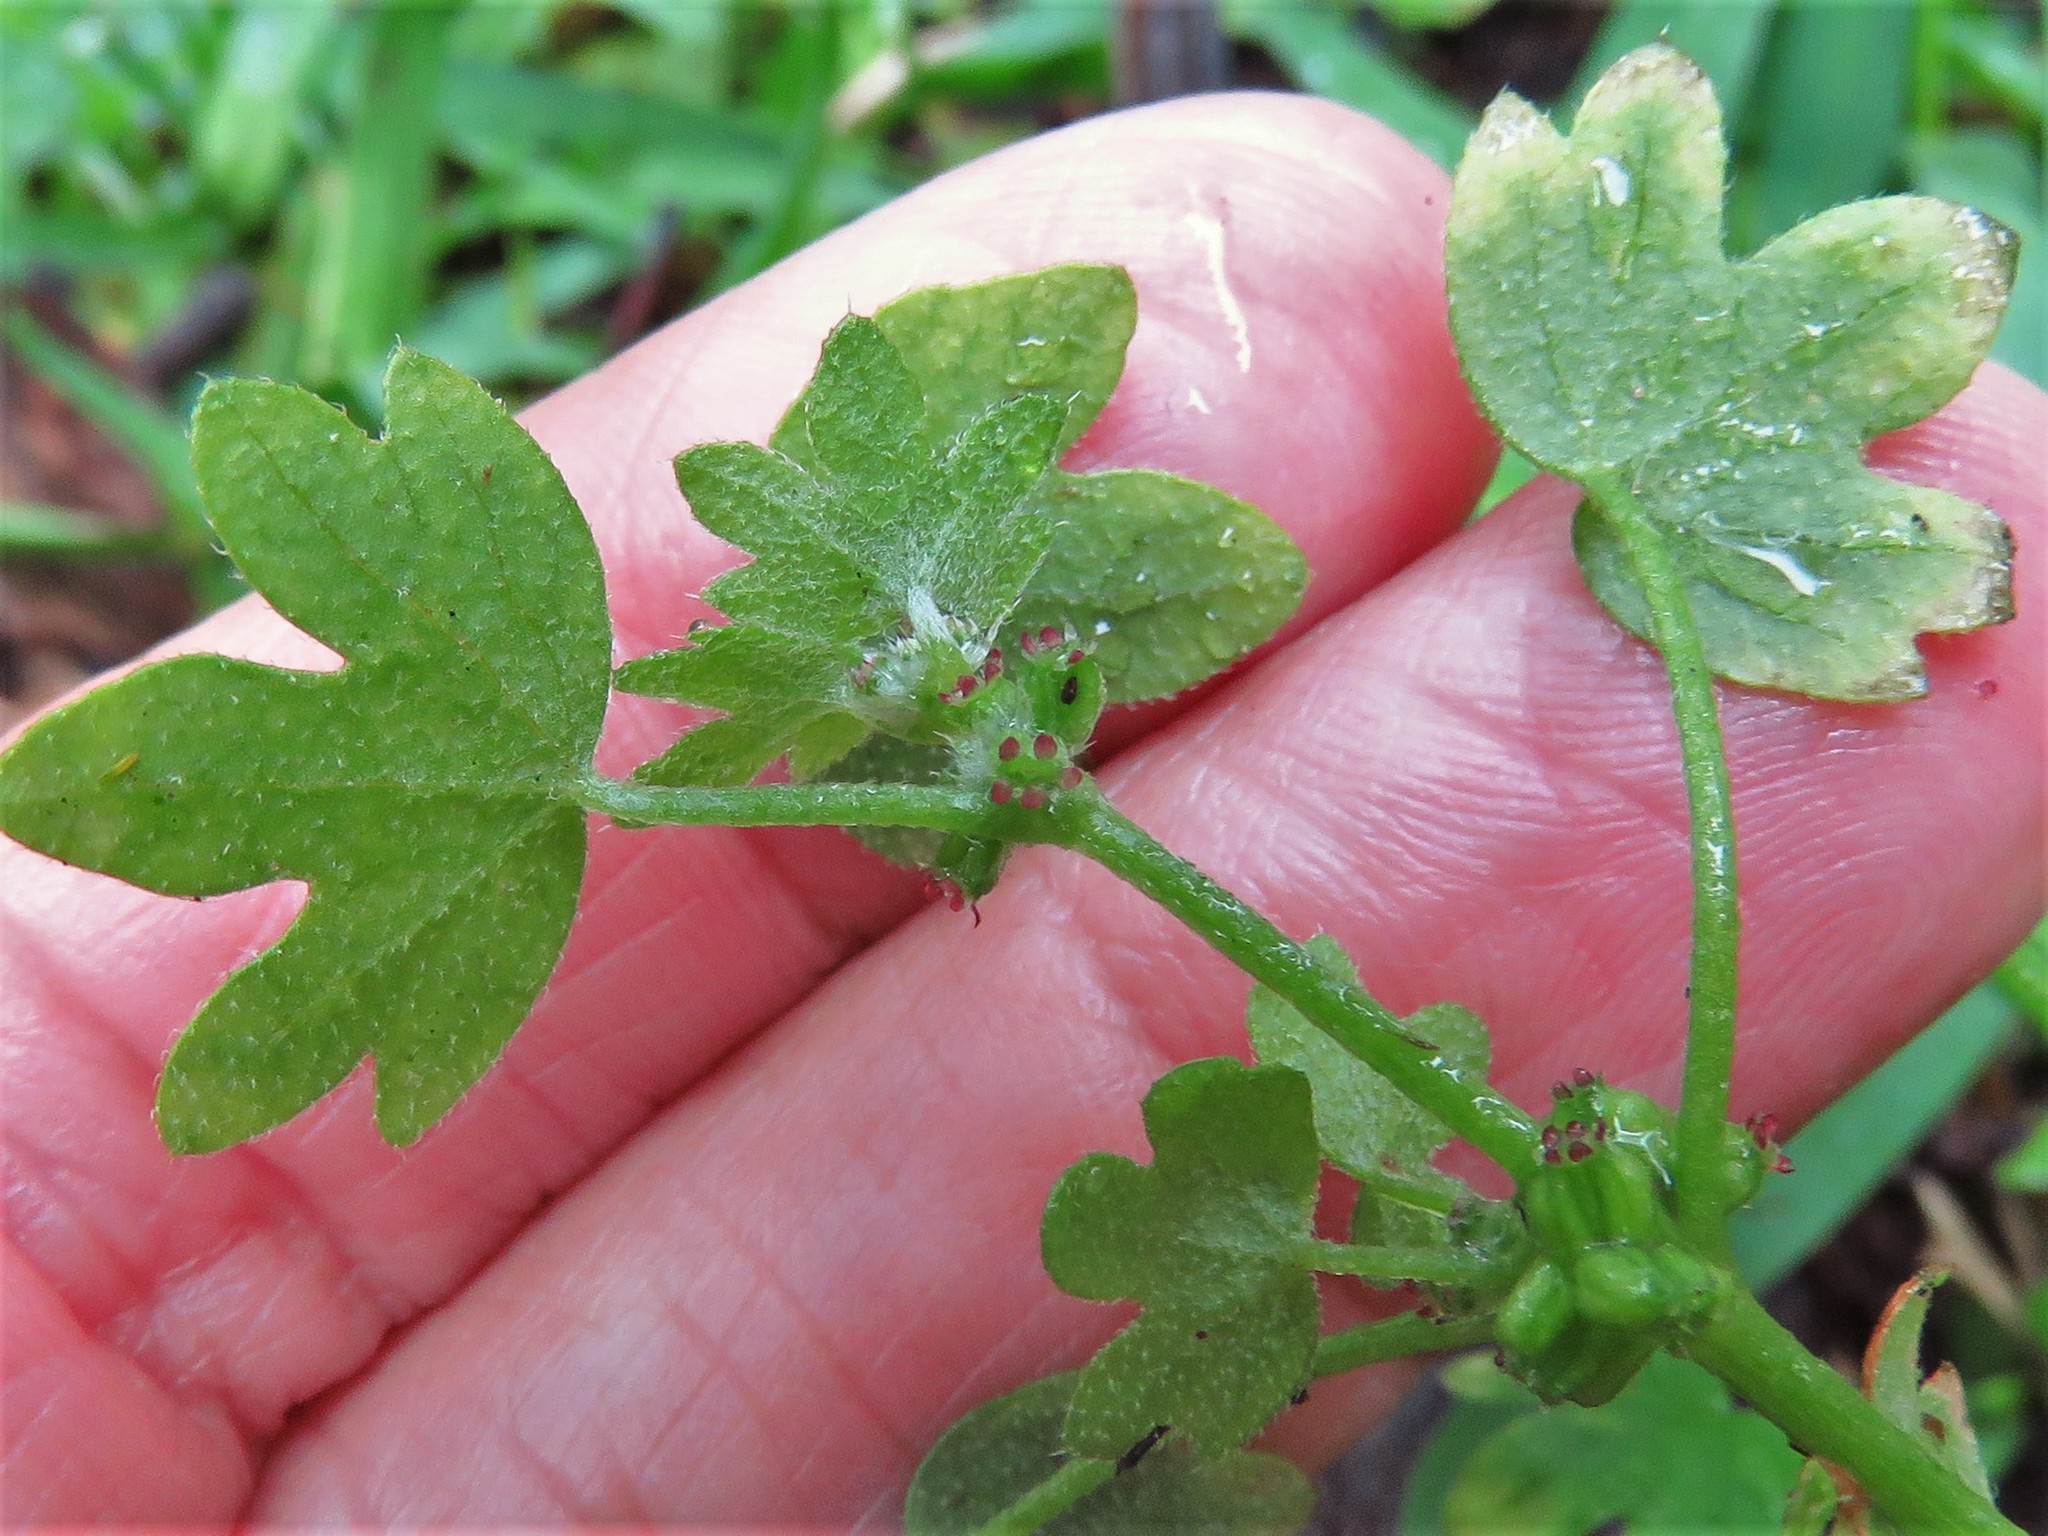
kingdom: Plantae
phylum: Tracheophyta
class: Magnoliopsida
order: Apiales
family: Apiaceae
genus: Bowlesia
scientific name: Bowlesia incana
